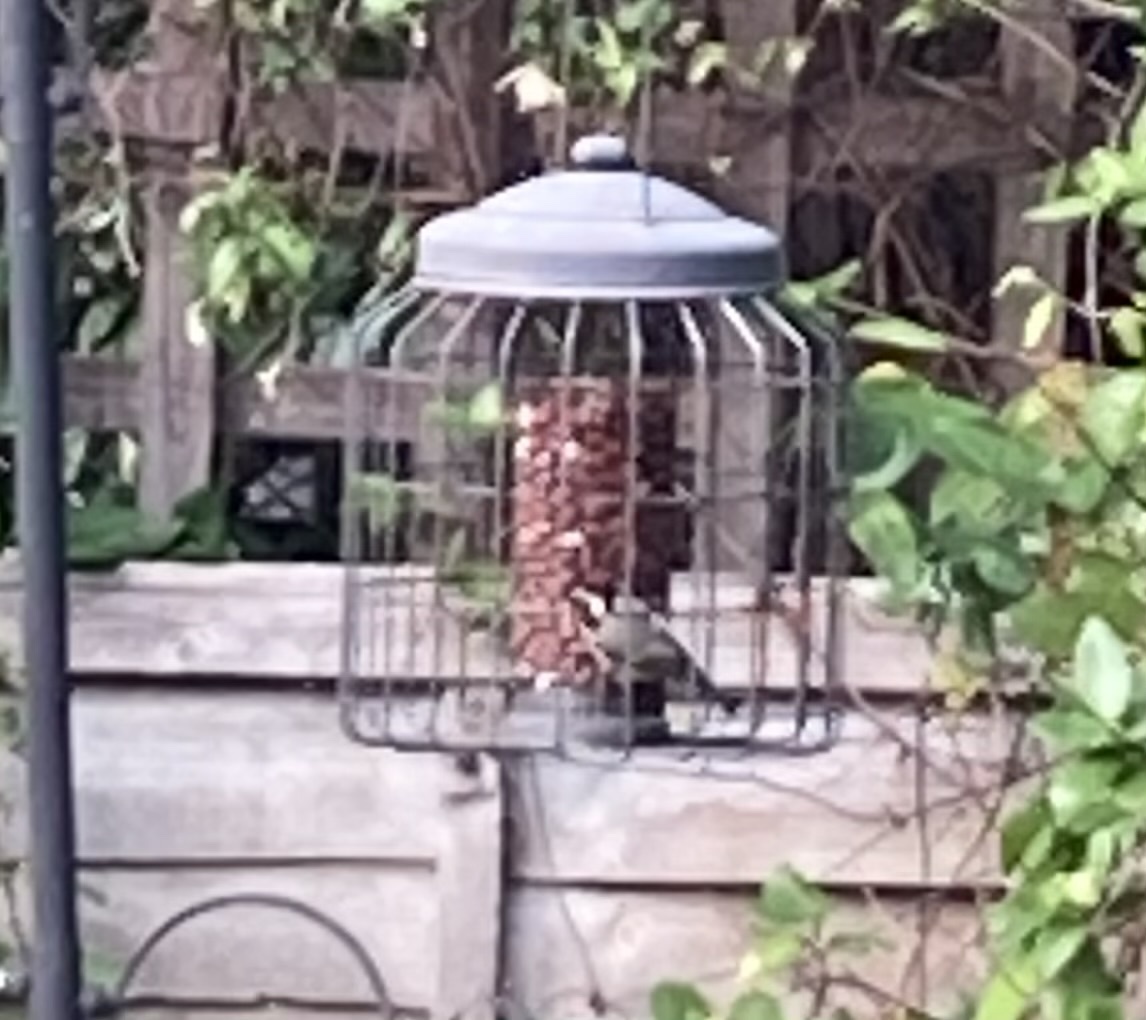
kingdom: Animalia
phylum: Chordata
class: Aves
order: Passeriformes
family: Paridae
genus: Periparus
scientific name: Periparus ater
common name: Coal tit
